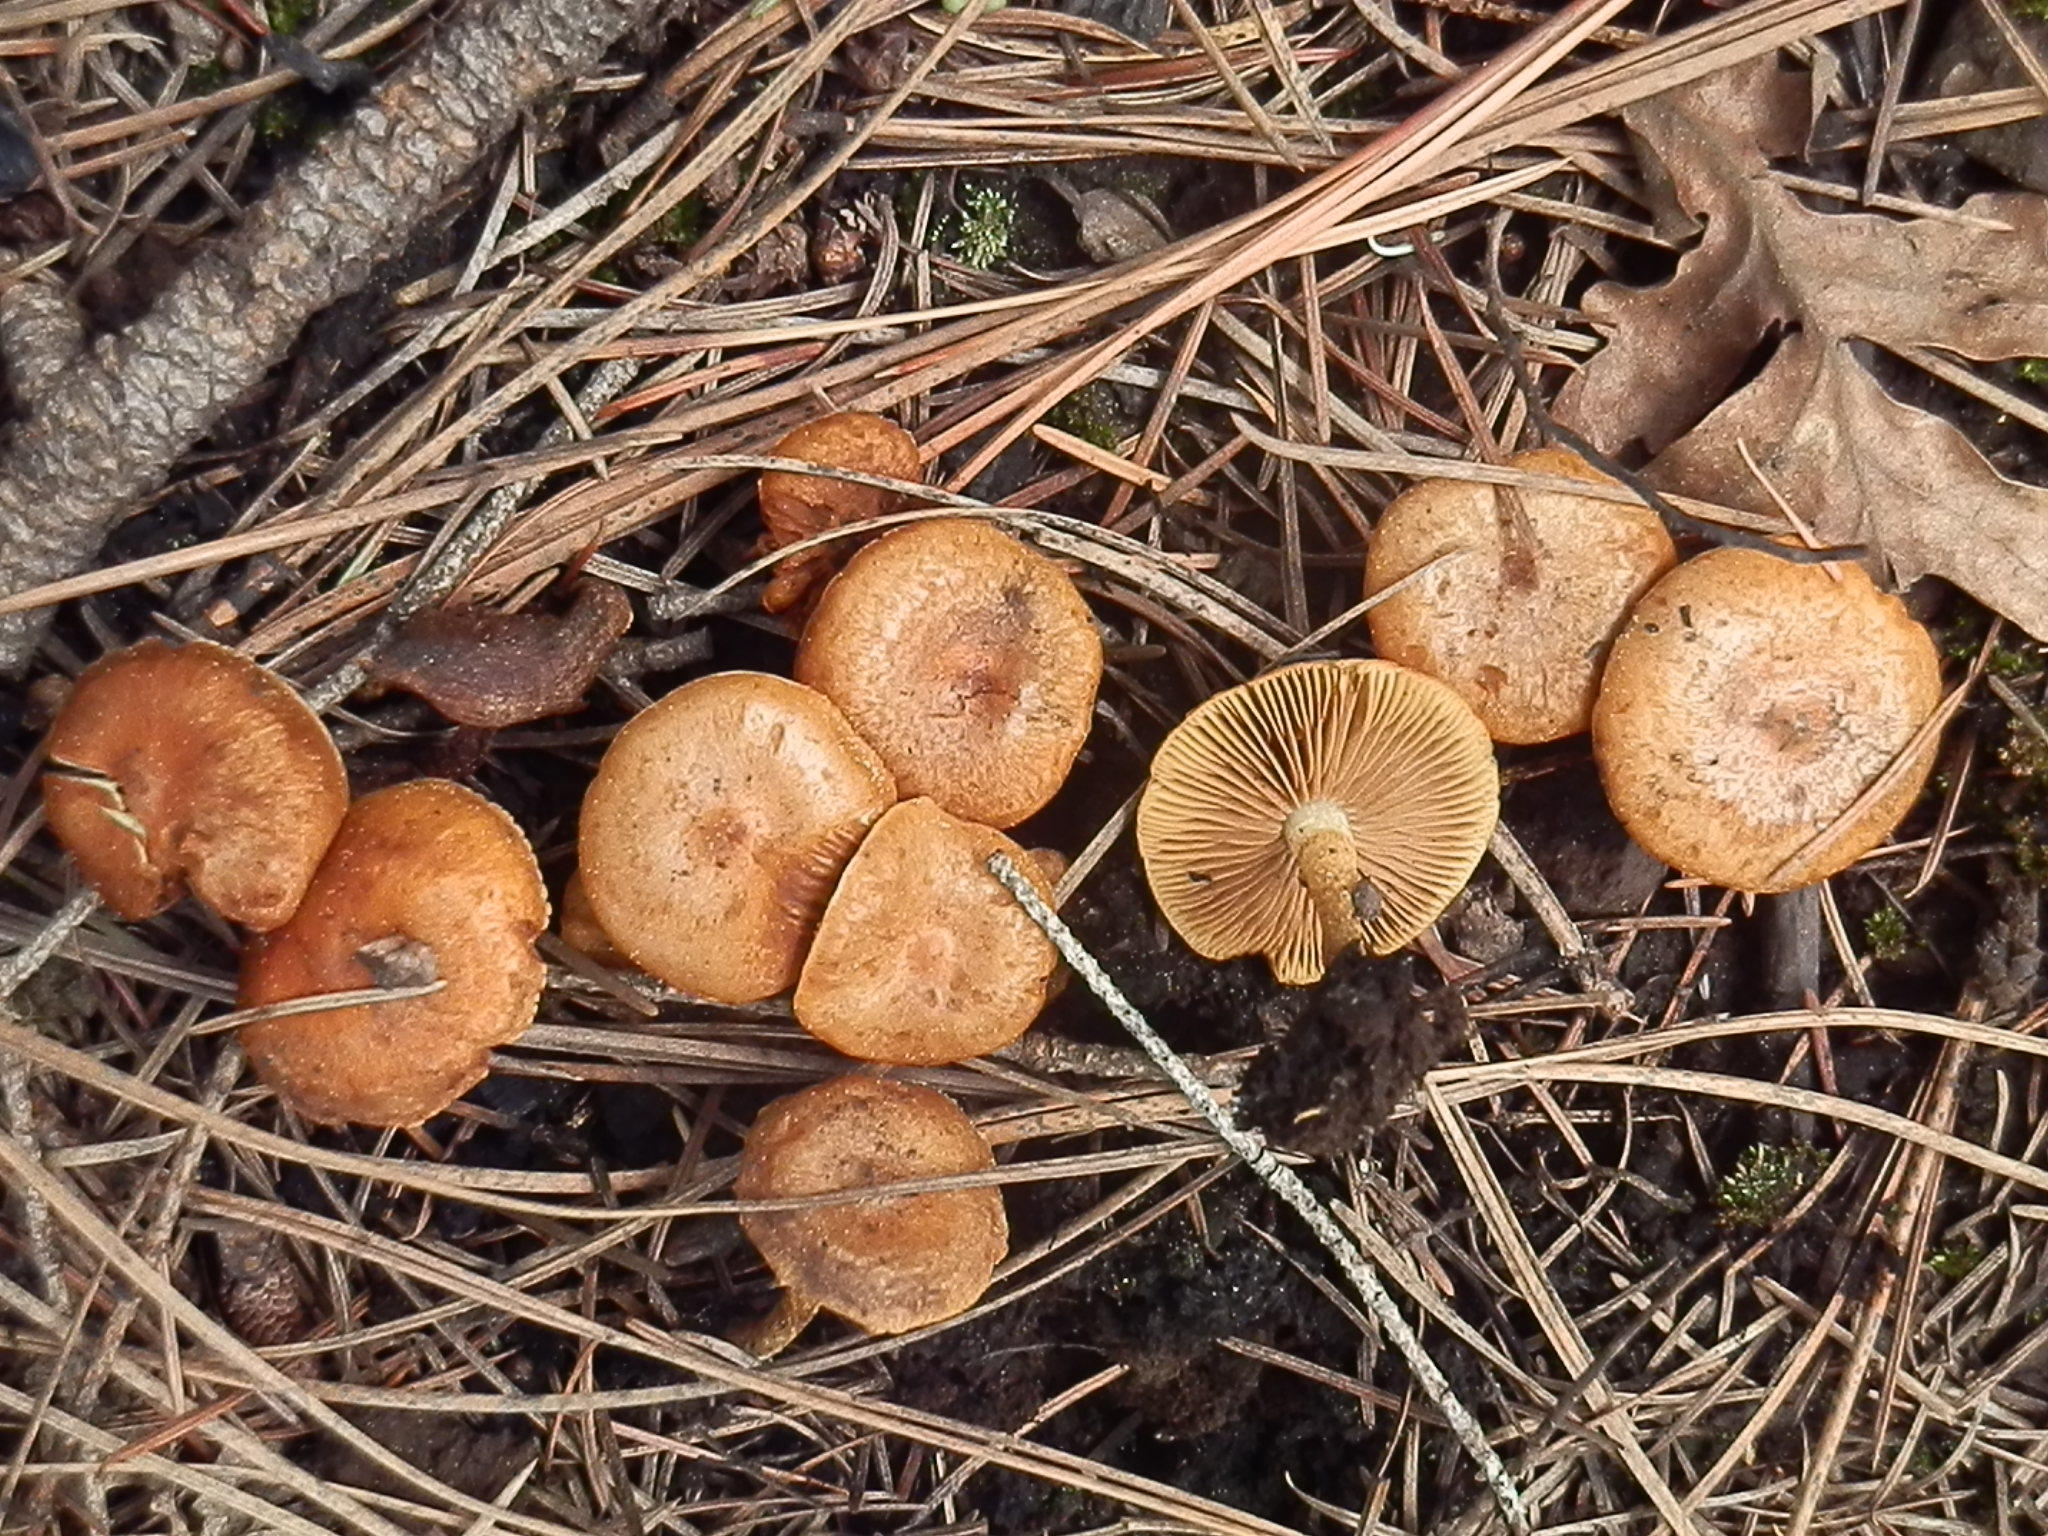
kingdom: Fungi
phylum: Basidiomycota
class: Agaricomycetes
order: Agaricales
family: Strophariaceae
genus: Pholiota
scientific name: Pholiota carbonaria
